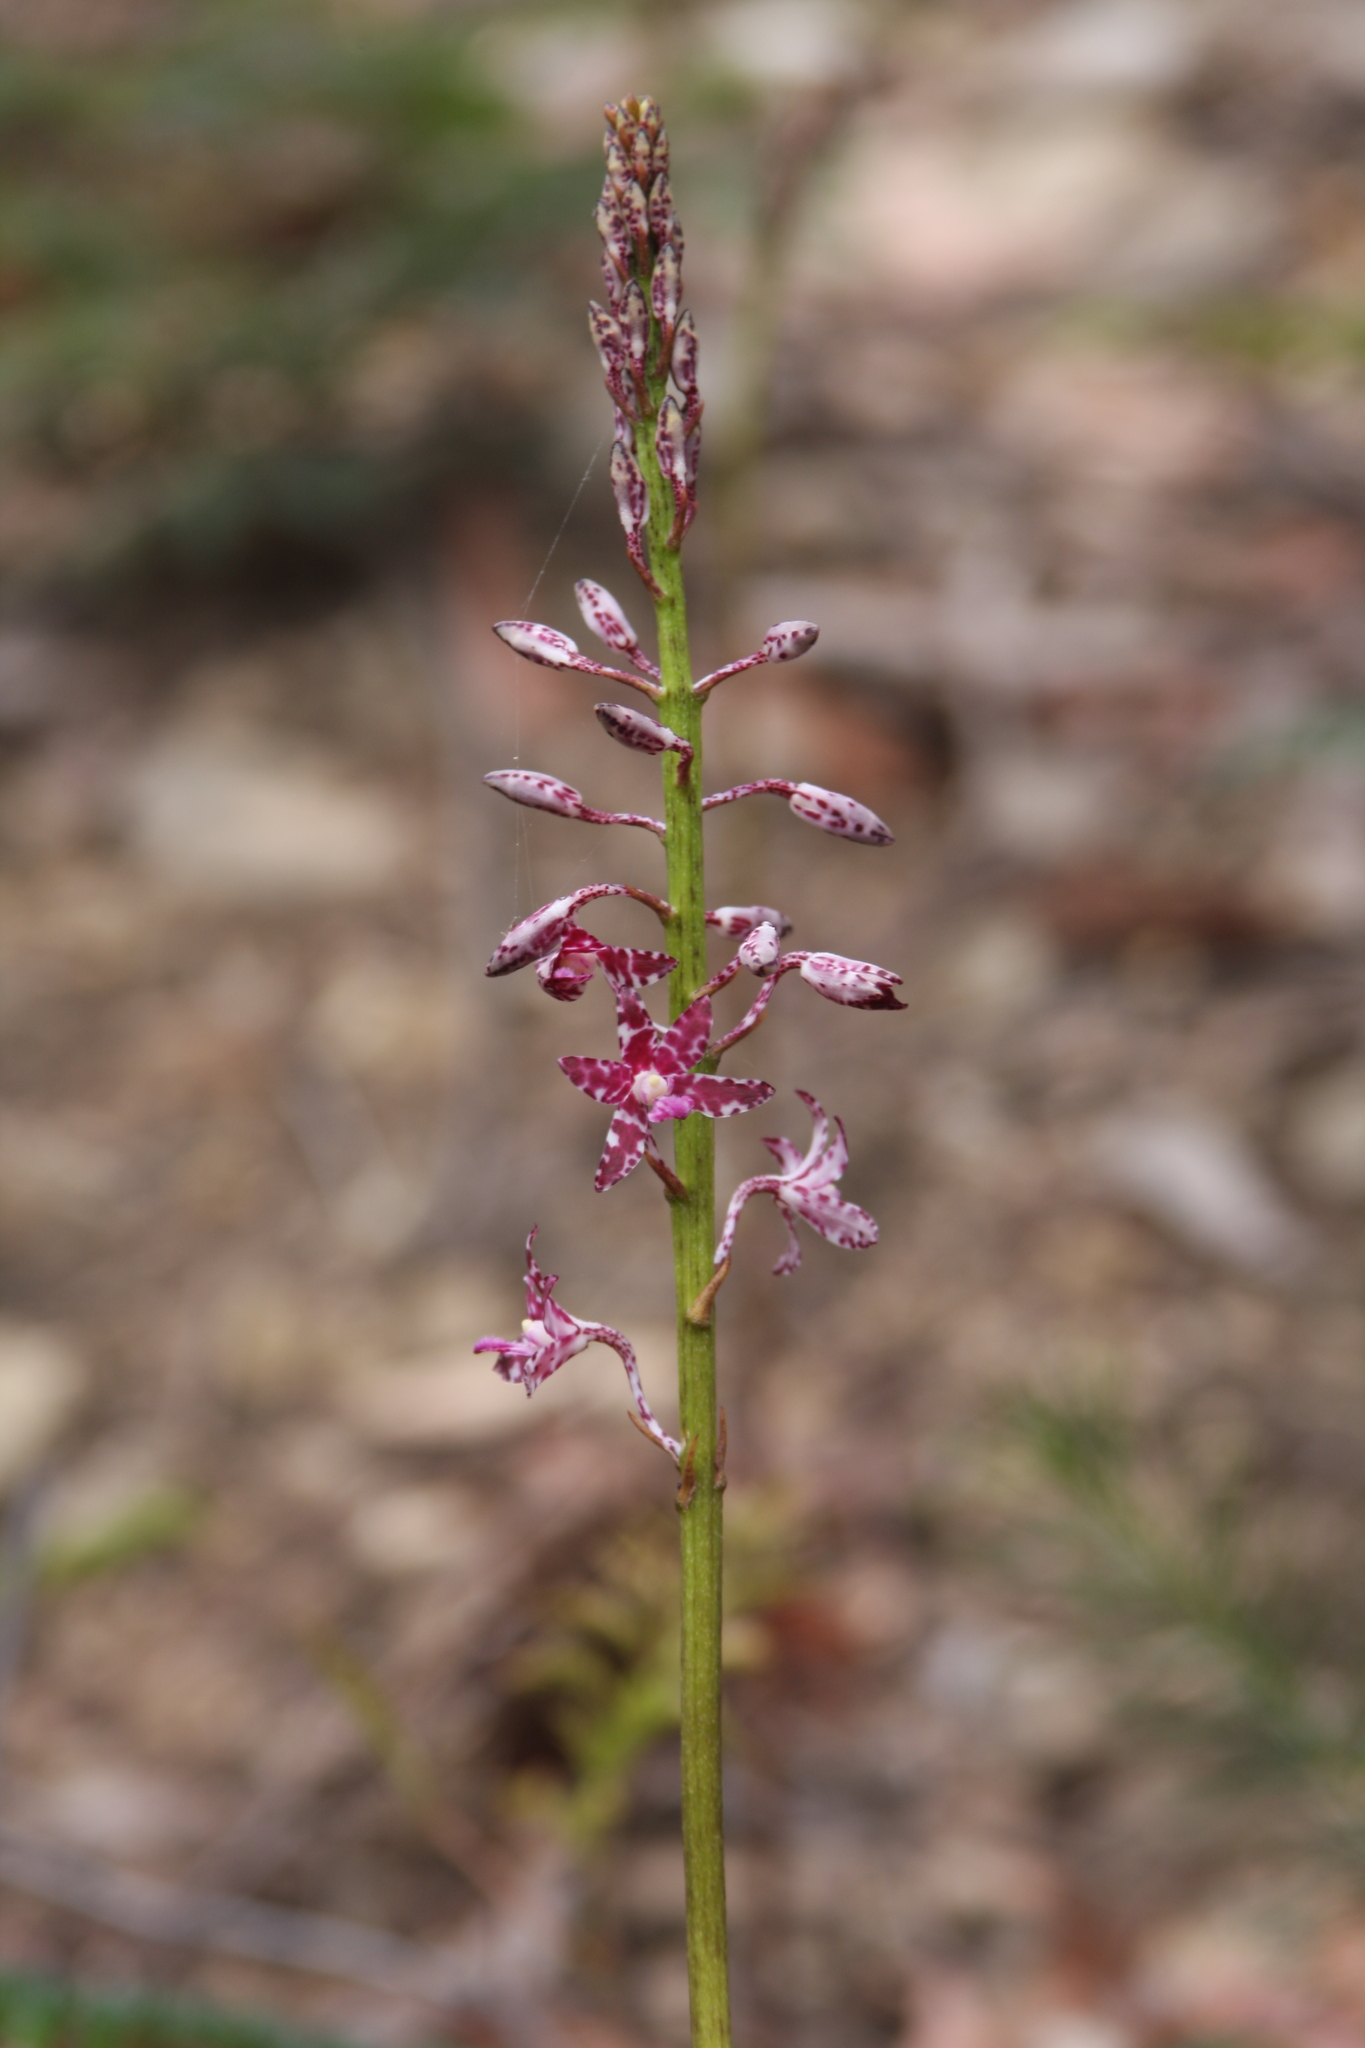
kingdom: Plantae
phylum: Tracheophyta
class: Liliopsida
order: Asparagales
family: Orchidaceae
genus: Dipodium
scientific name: Dipodium variegatum
